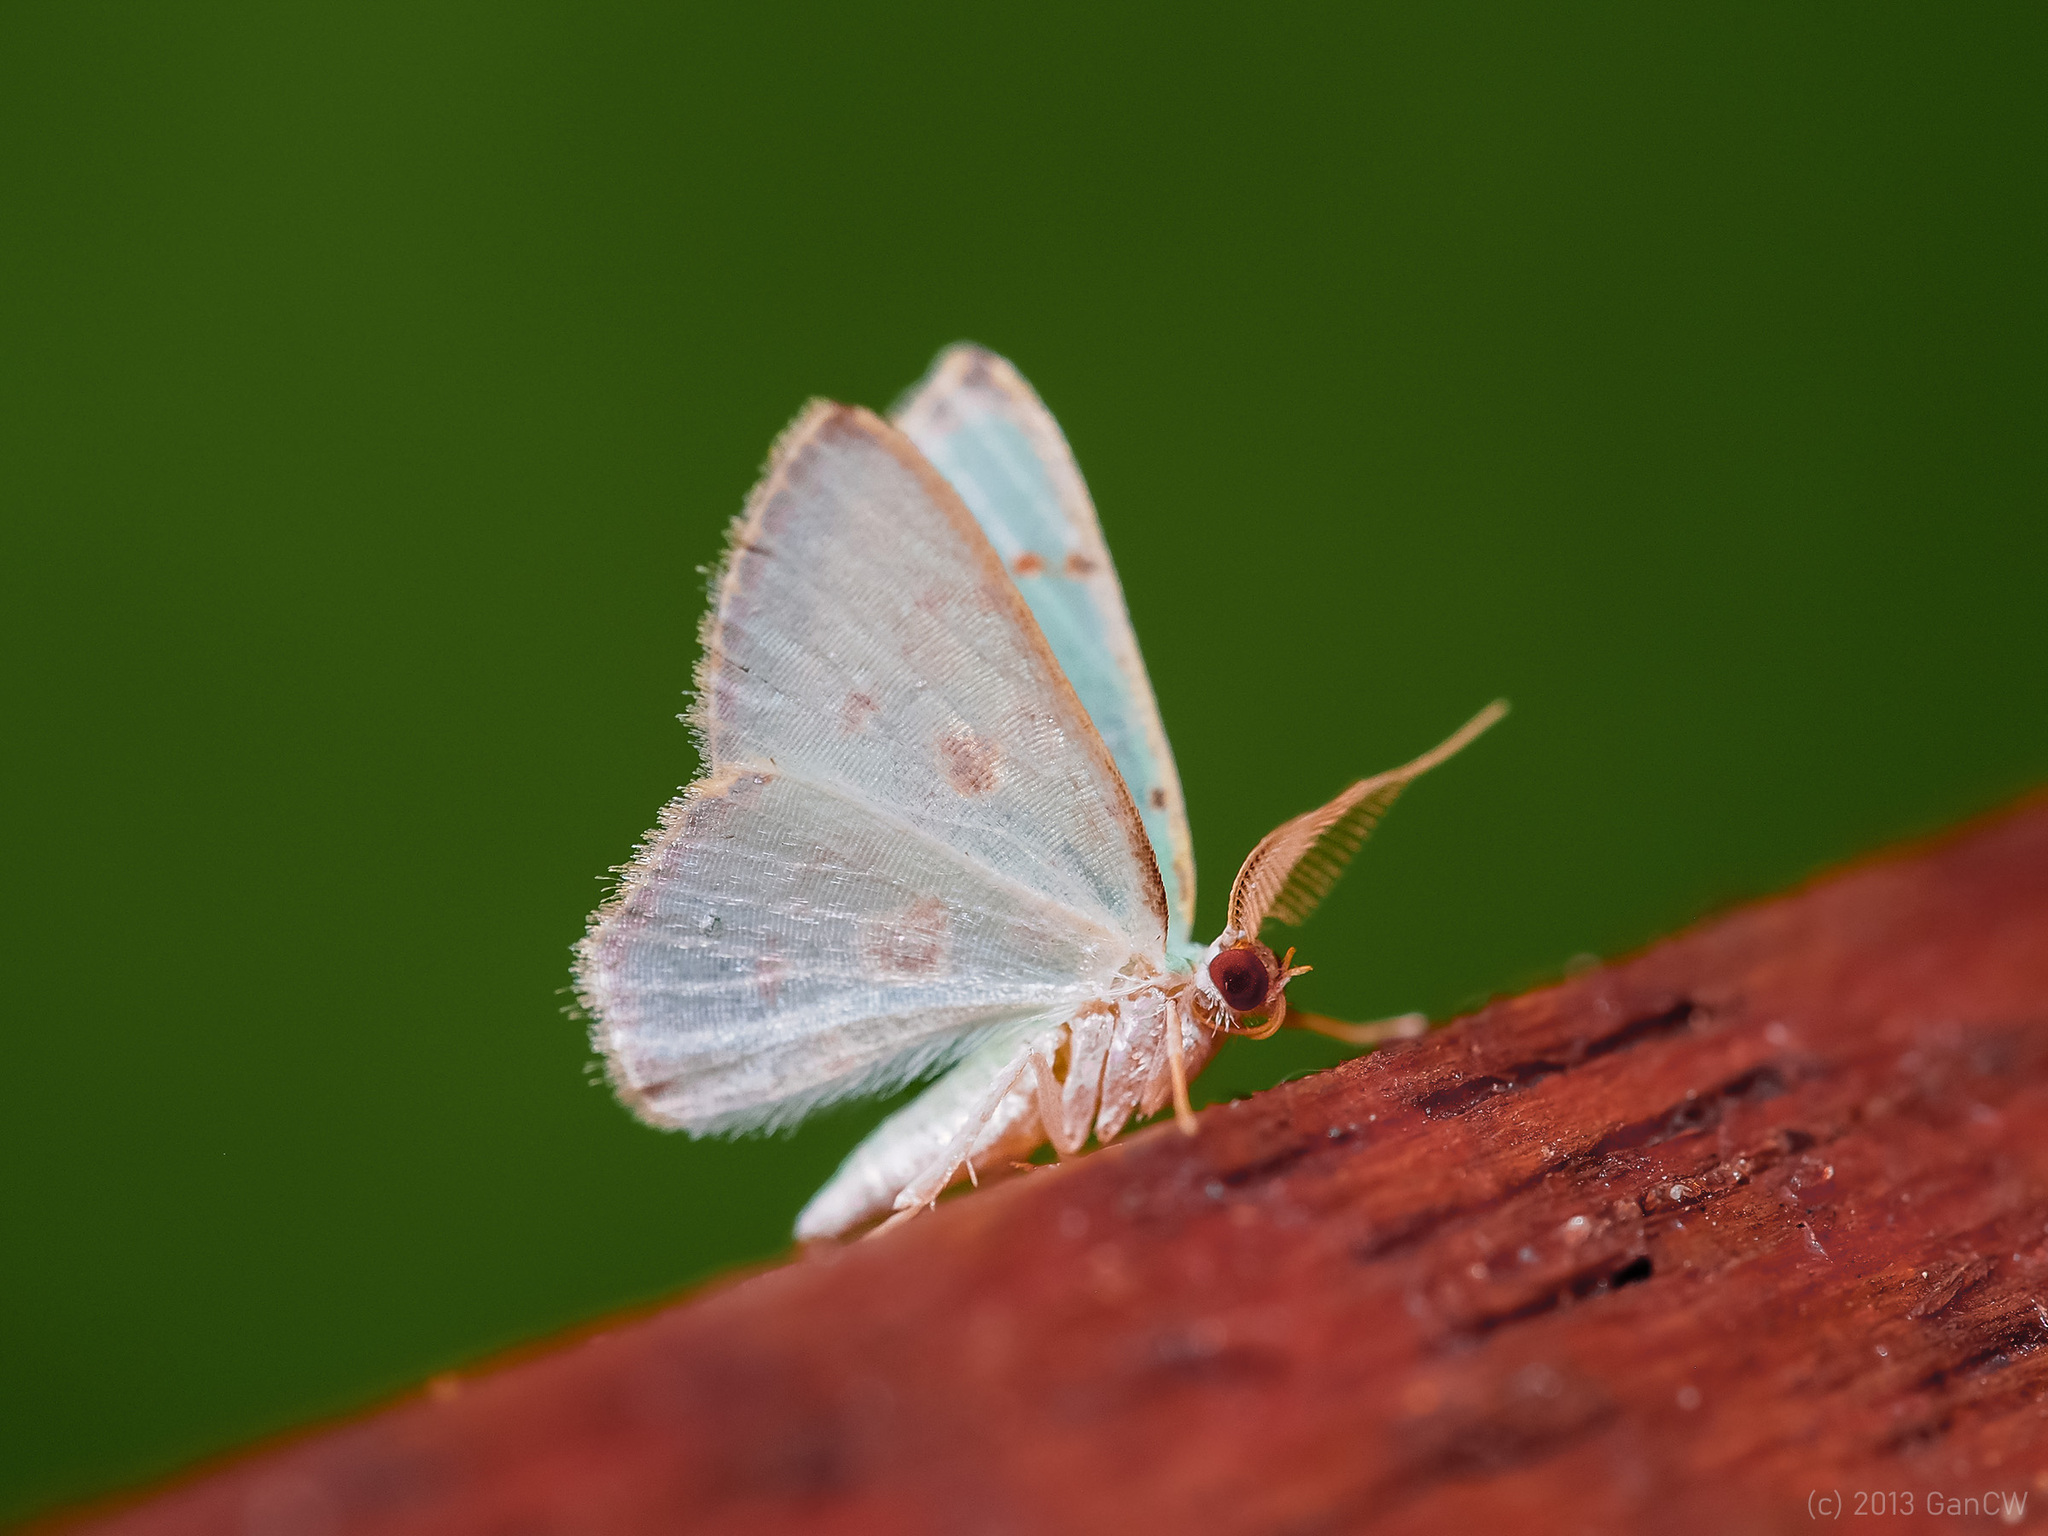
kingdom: Animalia
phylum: Arthropoda
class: Insecta
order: Lepidoptera
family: Geometridae
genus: Comostola
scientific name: Comostola laesaria
